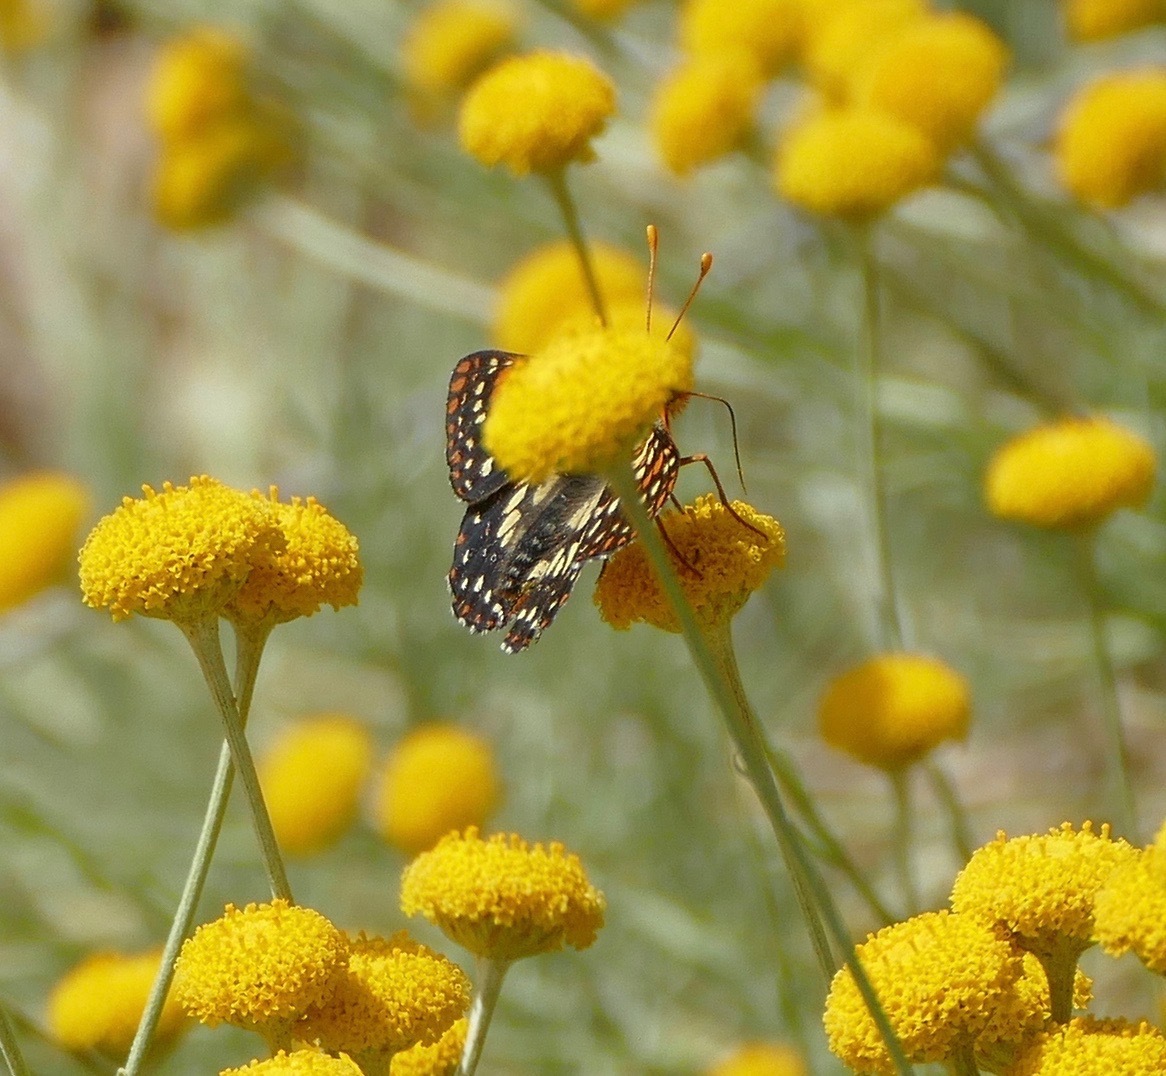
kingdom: Animalia
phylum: Arthropoda
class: Insecta
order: Lepidoptera
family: Nymphalidae
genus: Occidryas
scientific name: Occidryas chalcedona
